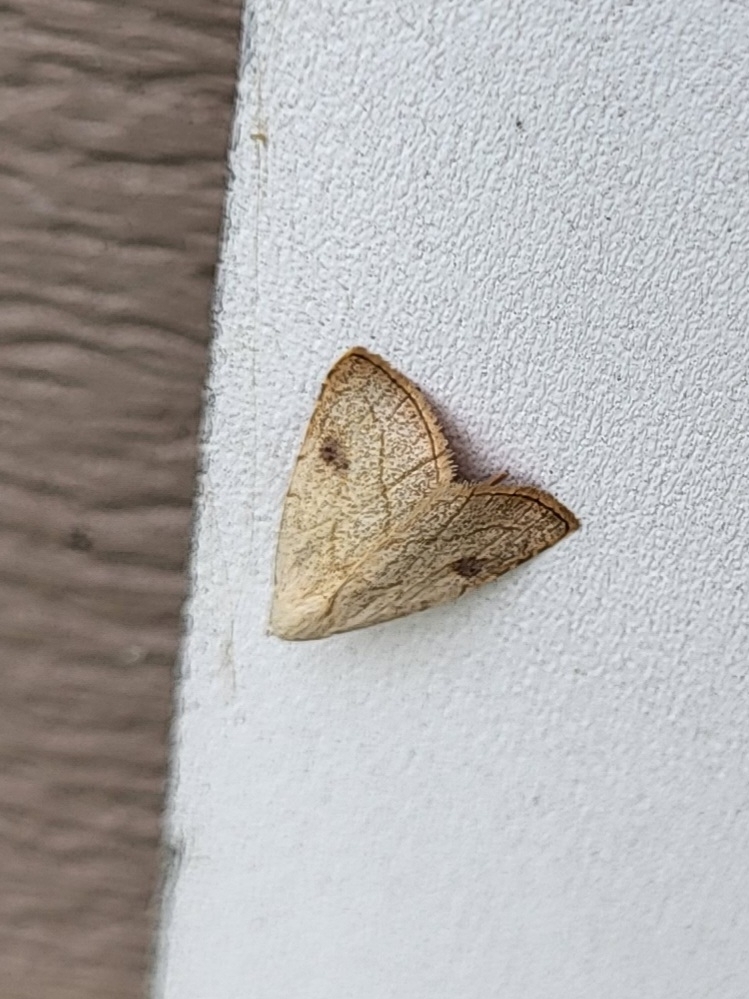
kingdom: Animalia
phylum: Arthropoda
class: Insecta
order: Lepidoptera
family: Erebidae
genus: Rivula
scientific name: Rivula propinqualis
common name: Spotted grass moth
